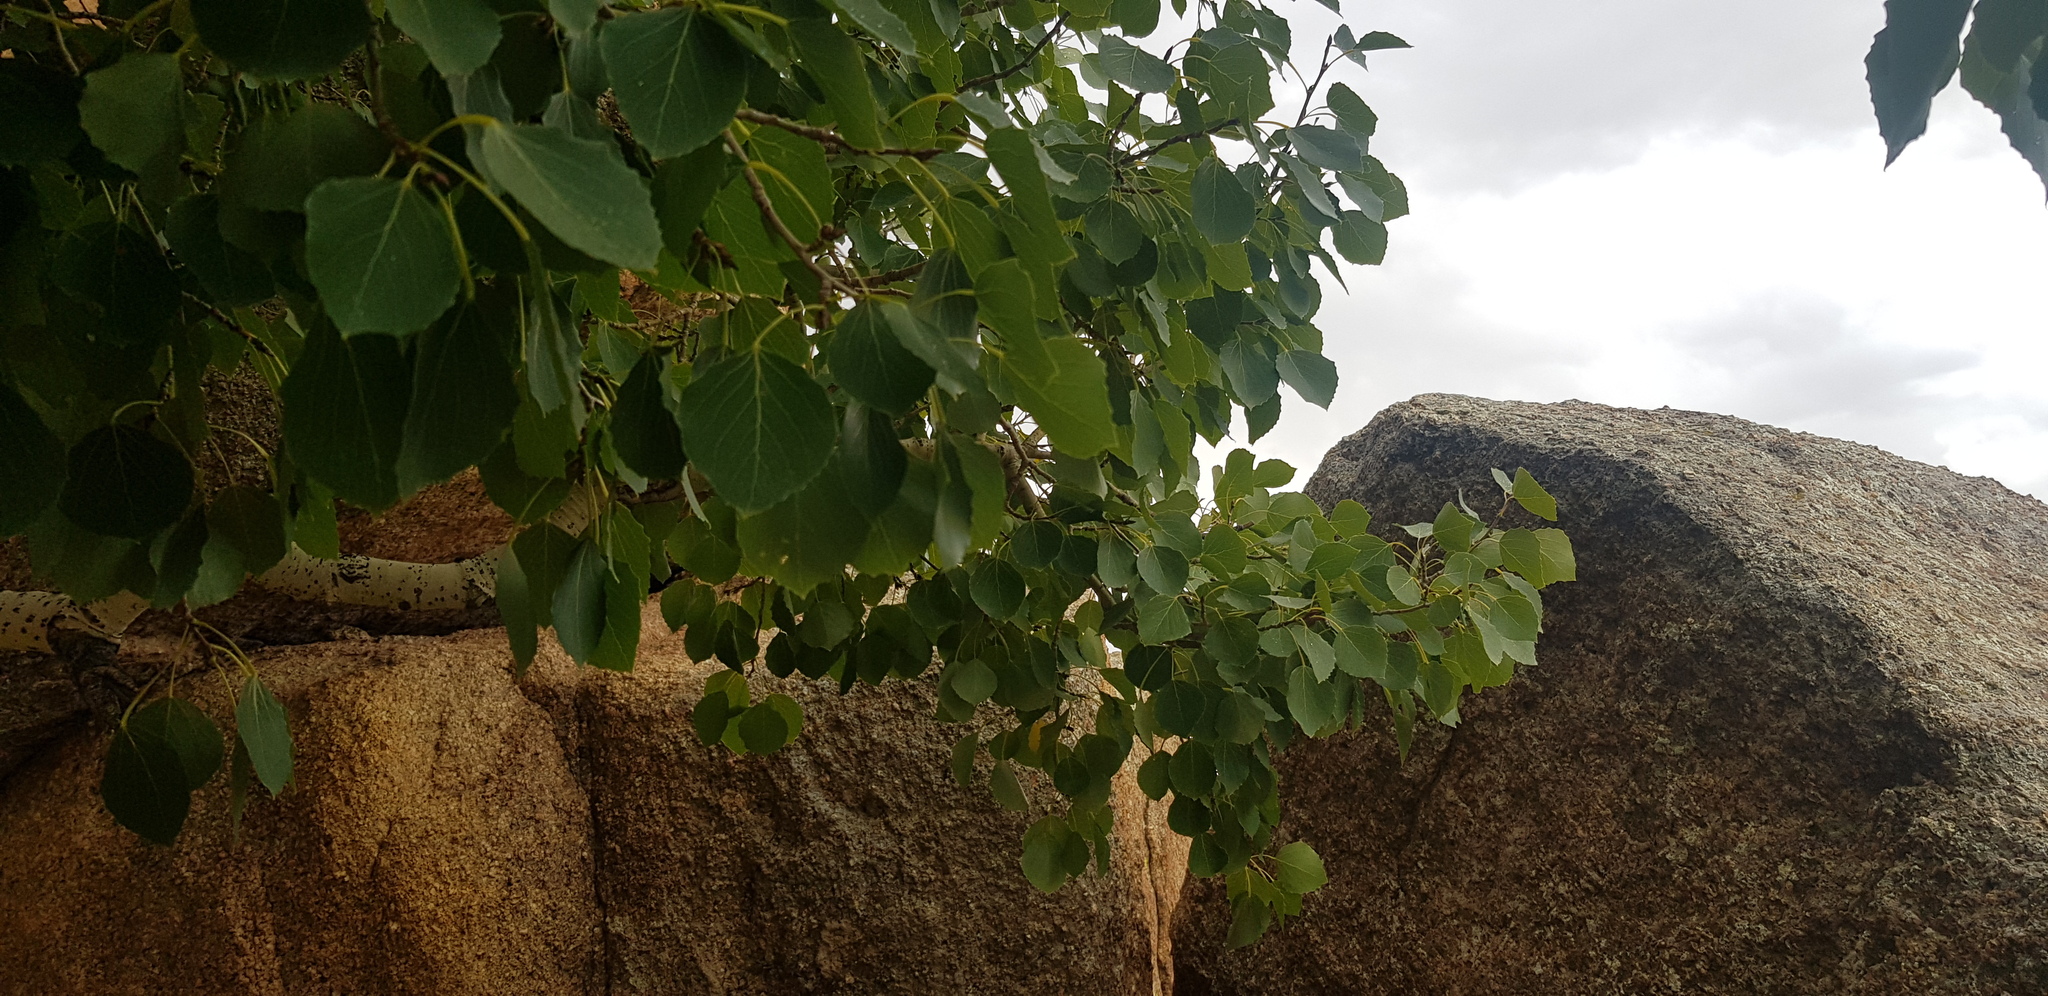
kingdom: Plantae
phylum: Tracheophyta
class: Magnoliopsida
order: Malpighiales
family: Salicaceae
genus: Populus
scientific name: Populus tremula
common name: European aspen
